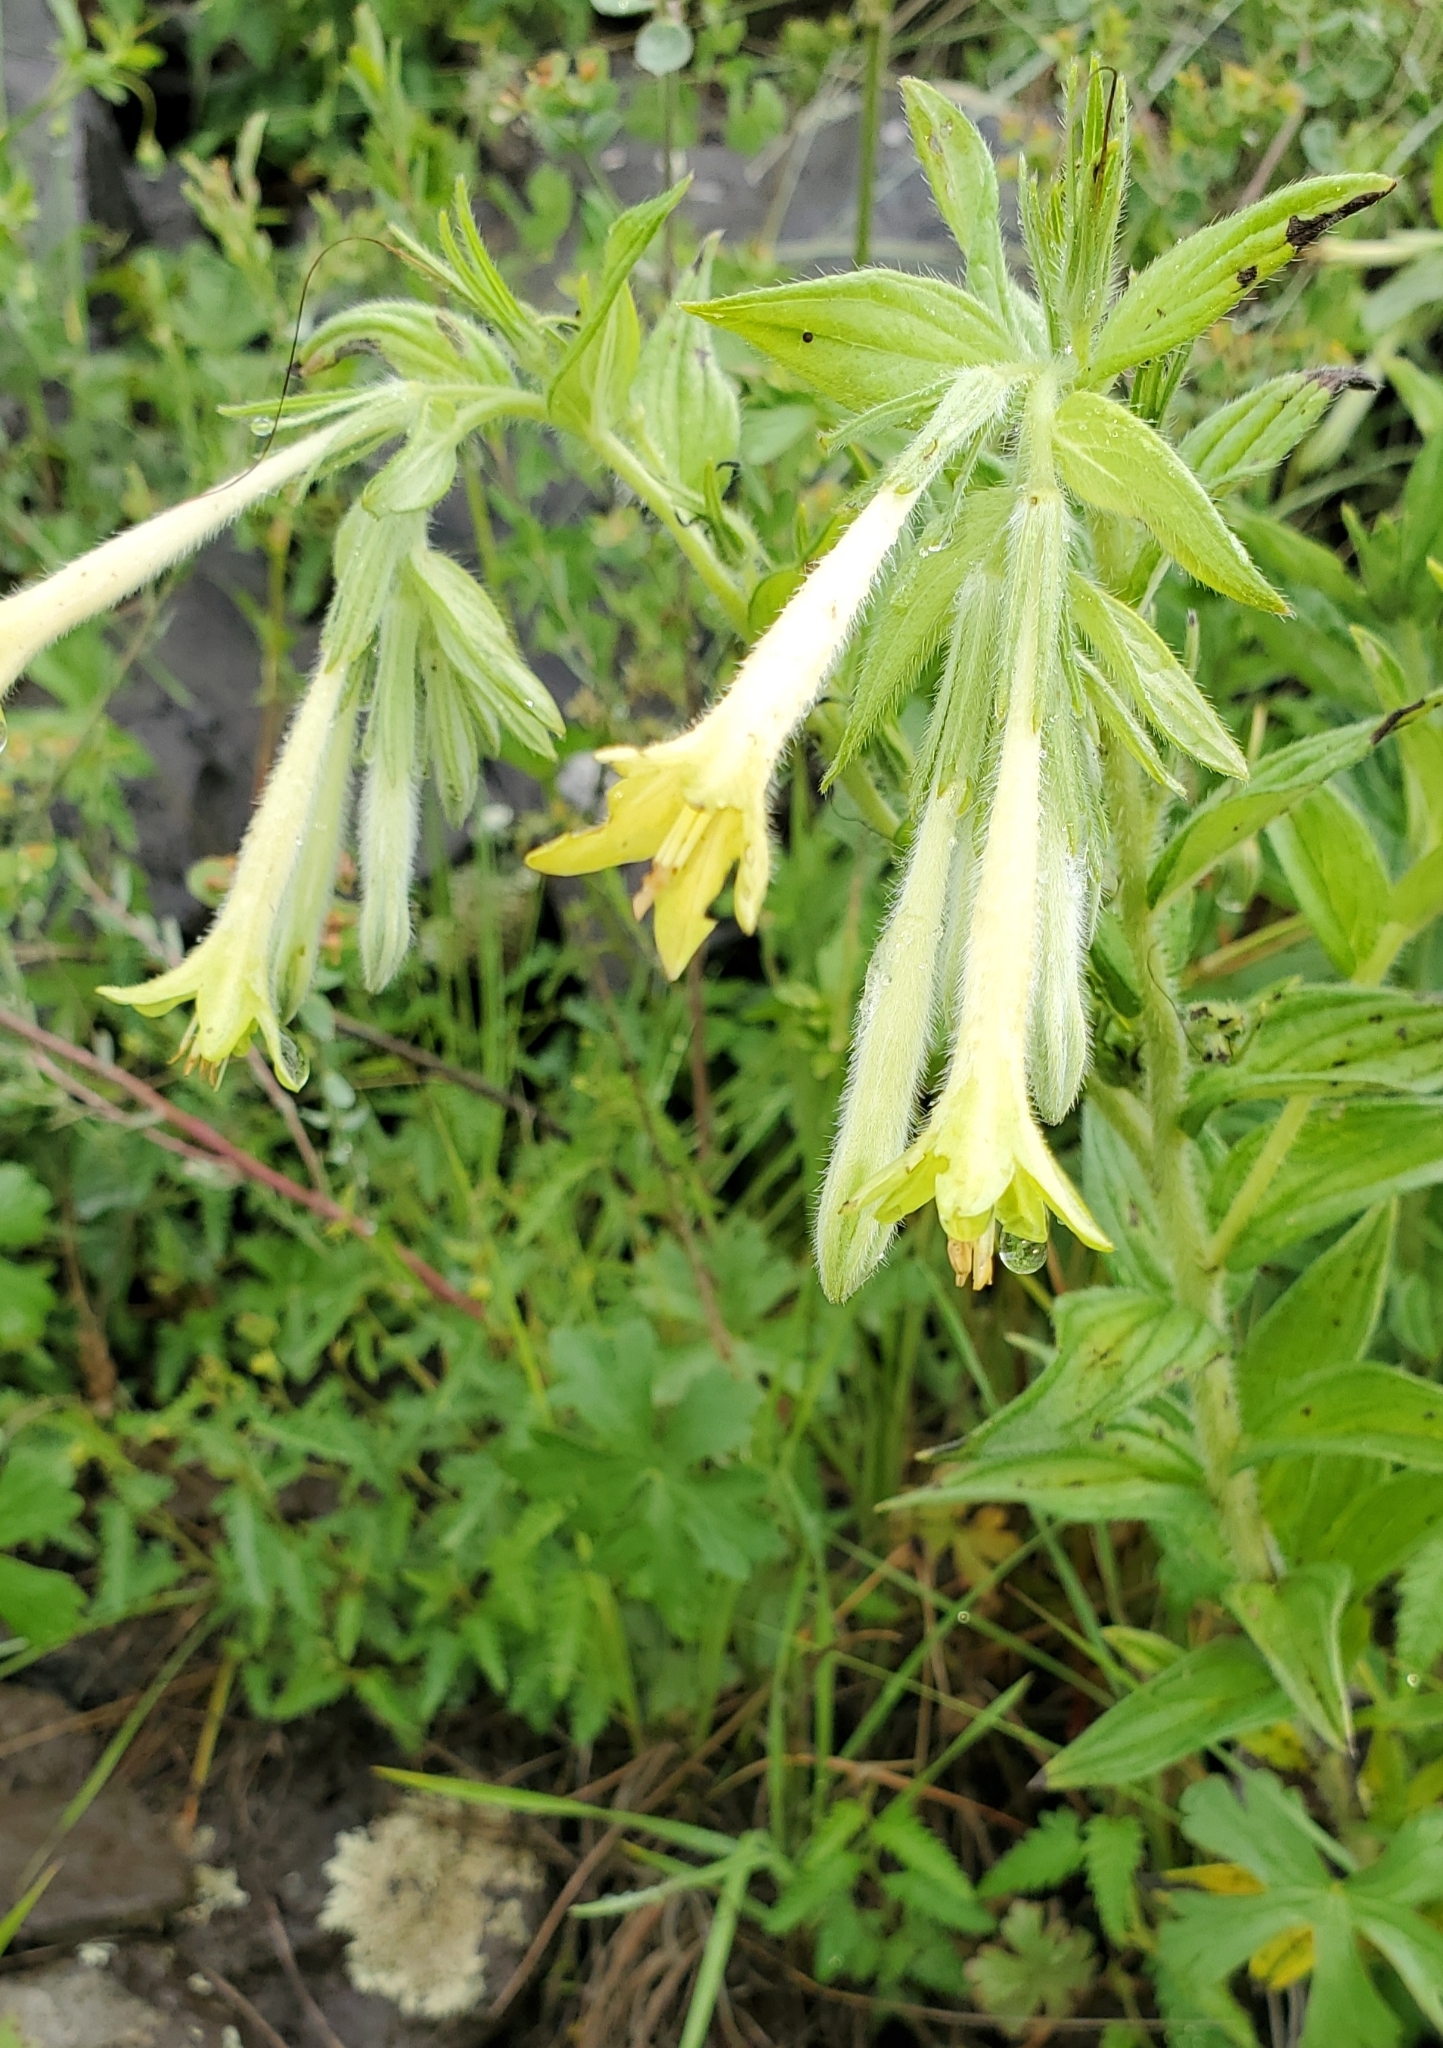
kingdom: Plantae
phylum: Tracheophyta
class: Magnoliopsida
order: Boraginales
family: Boraginaceae
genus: Lithospermum
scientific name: Lithospermum thurberi
